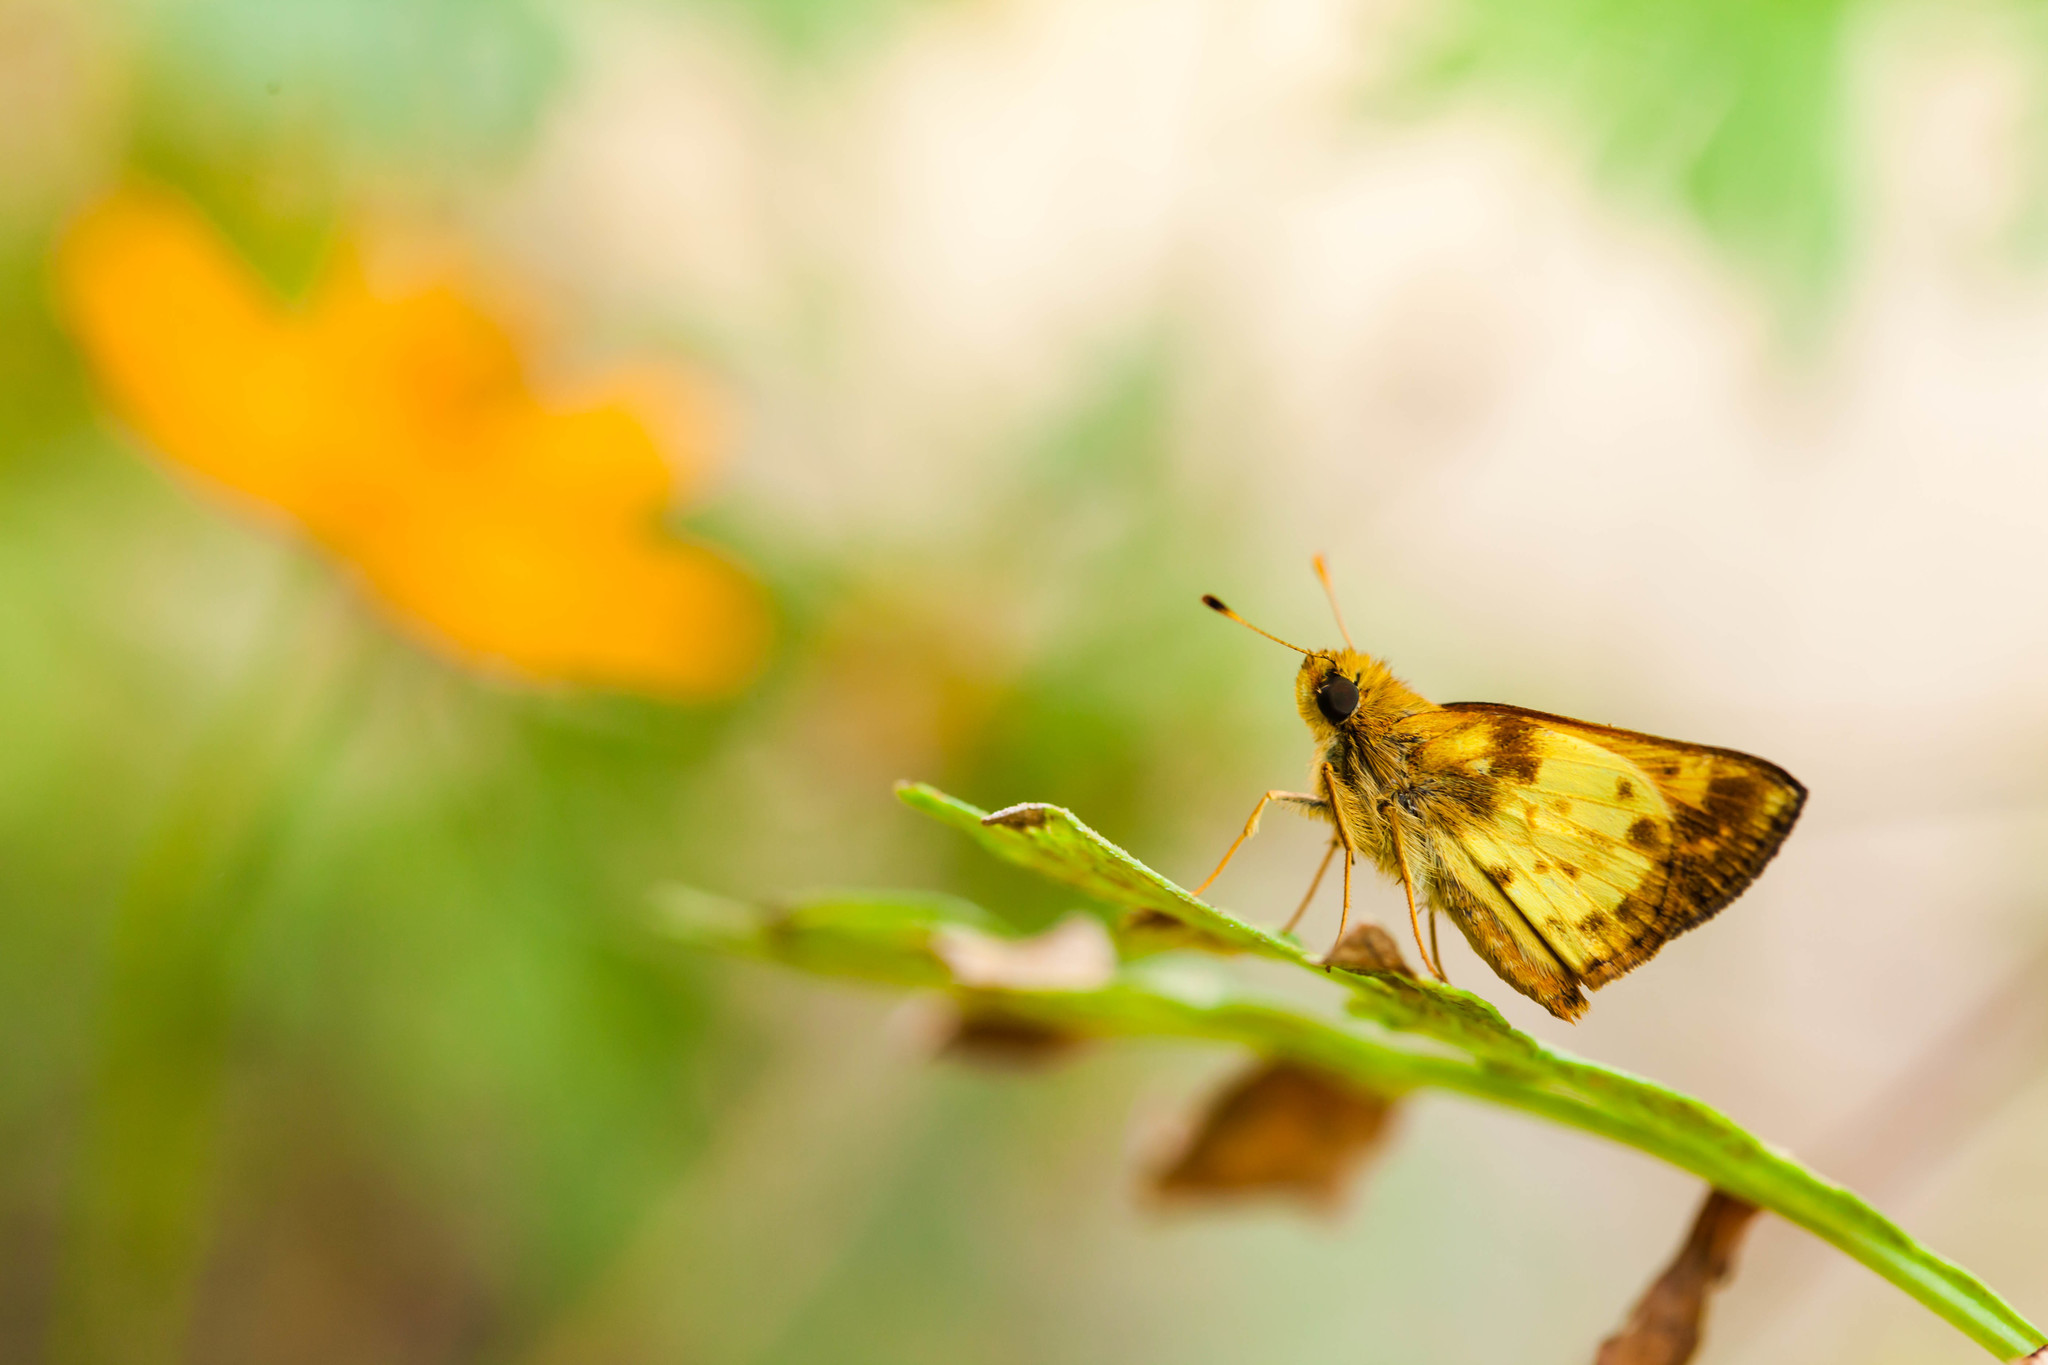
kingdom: Animalia
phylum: Arthropoda
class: Insecta
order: Lepidoptera
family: Hesperiidae
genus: Lon
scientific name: Lon zabulon
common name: Zabulon skipper
